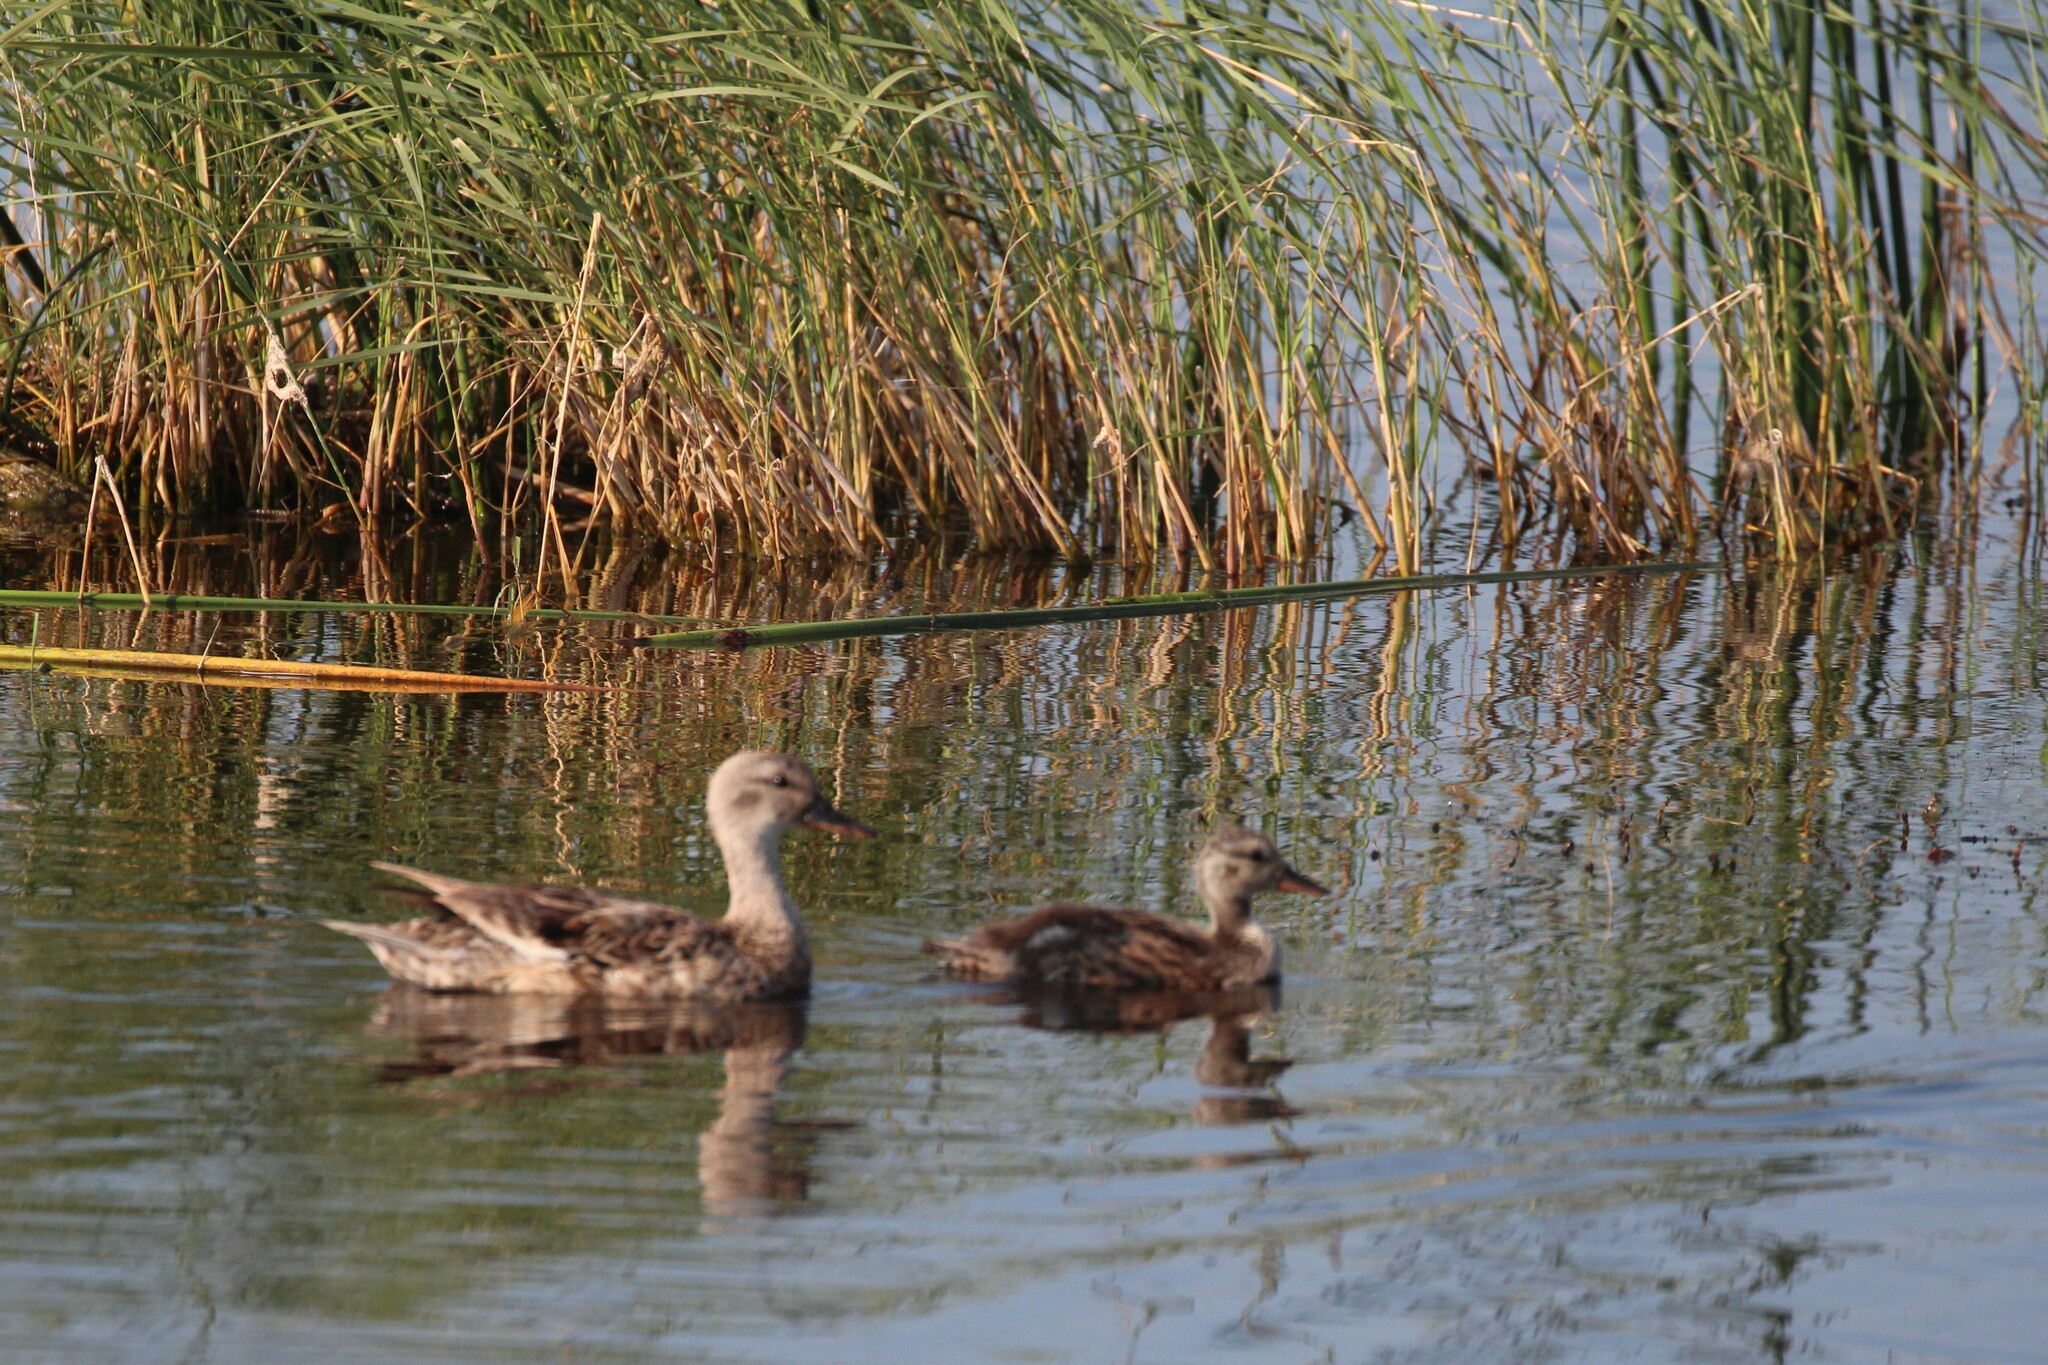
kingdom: Animalia
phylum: Chordata
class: Aves
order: Anseriformes
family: Anatidae
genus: Mareca
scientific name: Mareca strepera
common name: Gadwall
